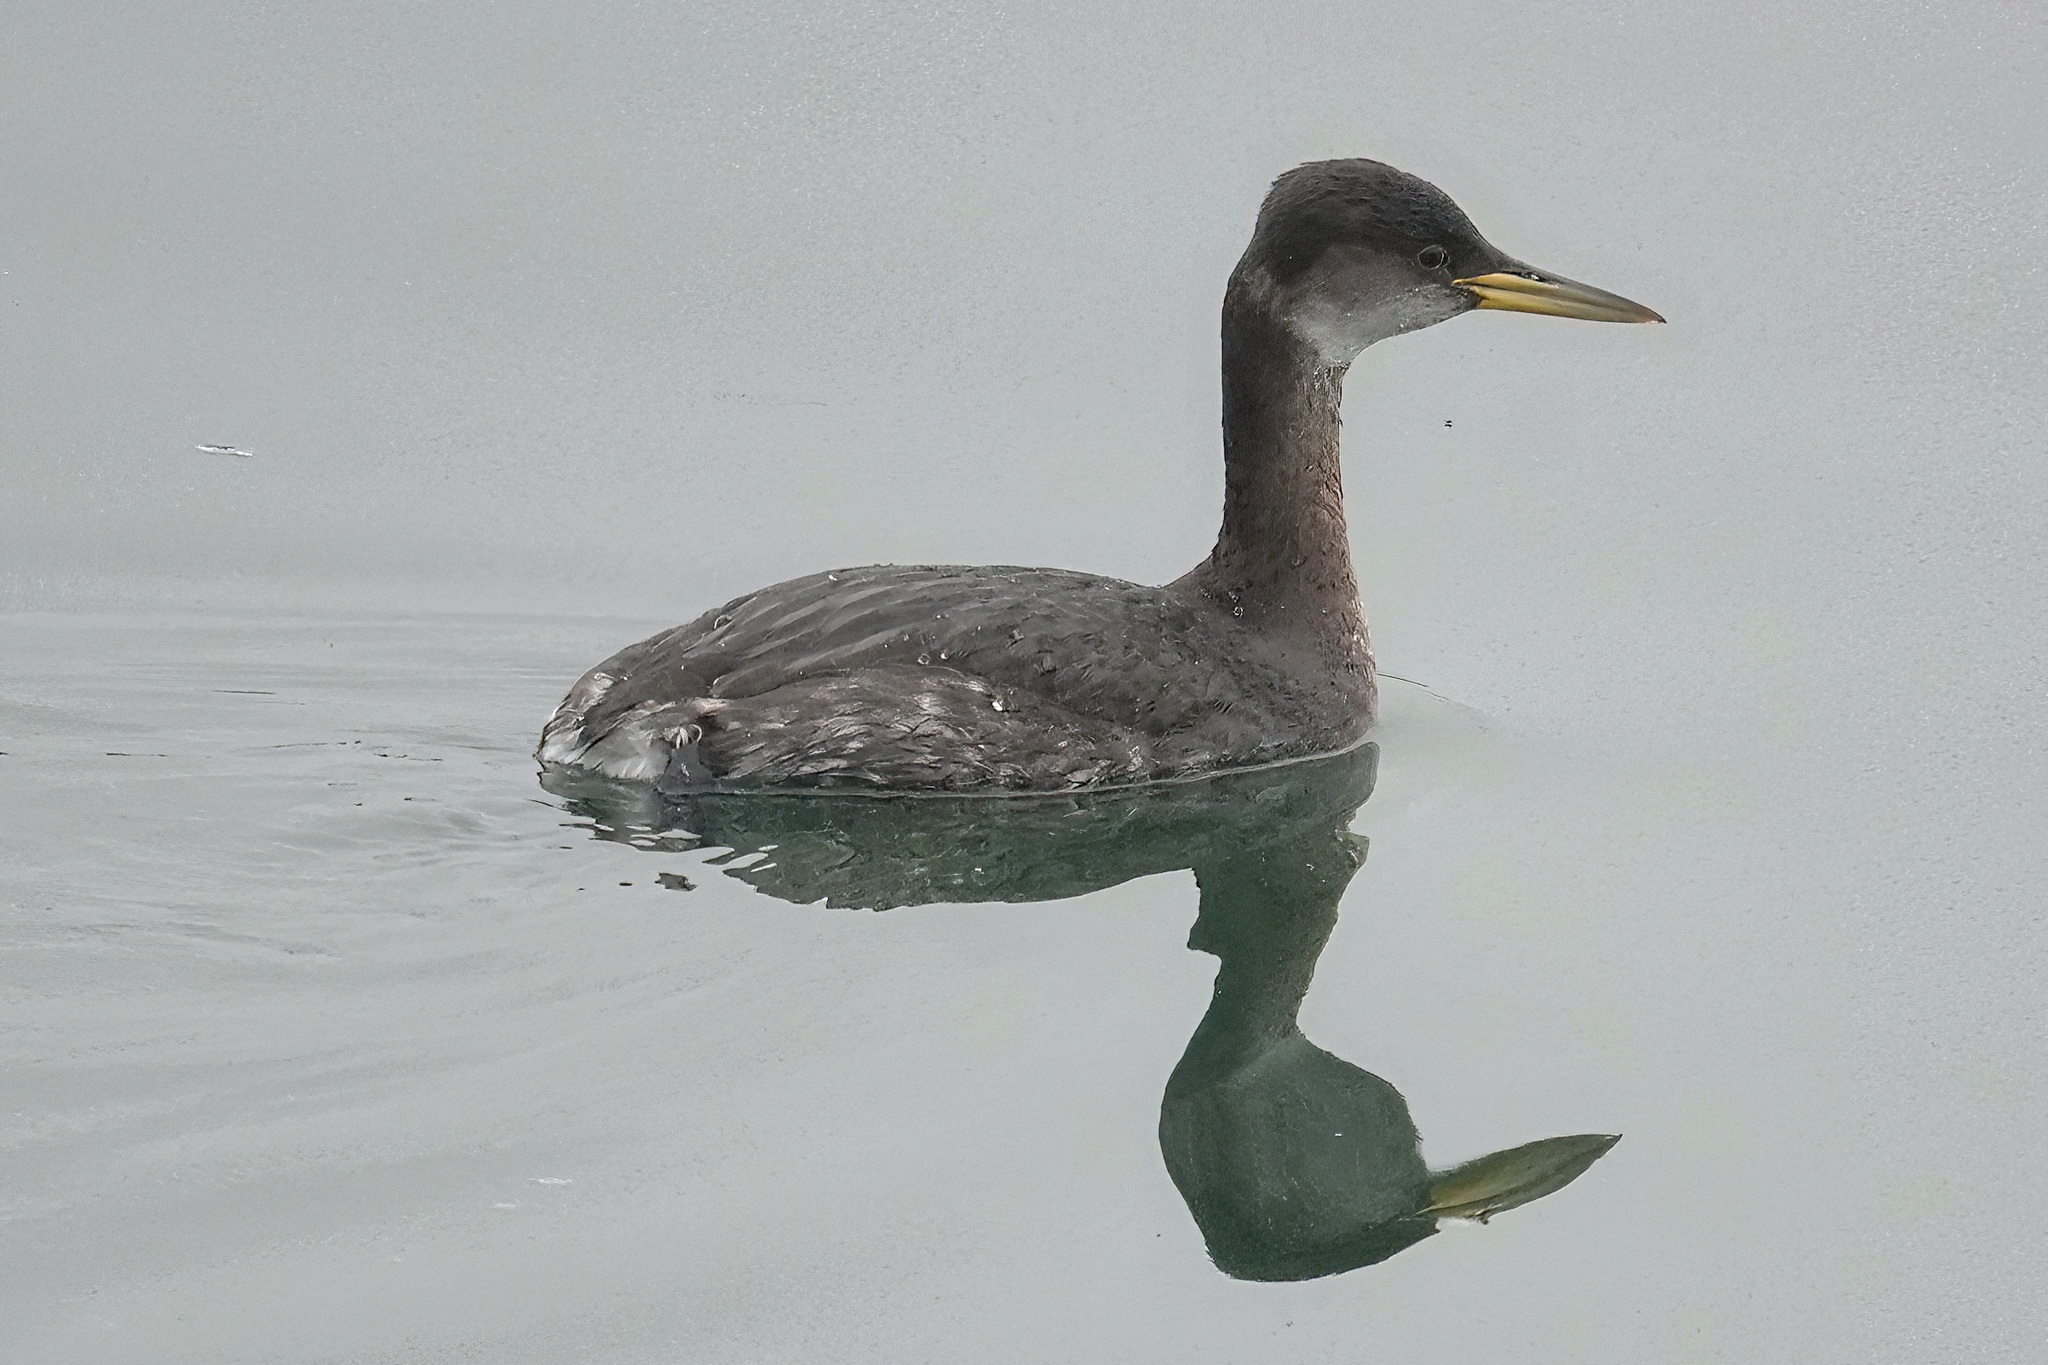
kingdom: Animalia
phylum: Chordata
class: Aves
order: Podicipediformes
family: Podicipedidae
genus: Podiceps
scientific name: Podiceps grisegena
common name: Red-necked grebe
